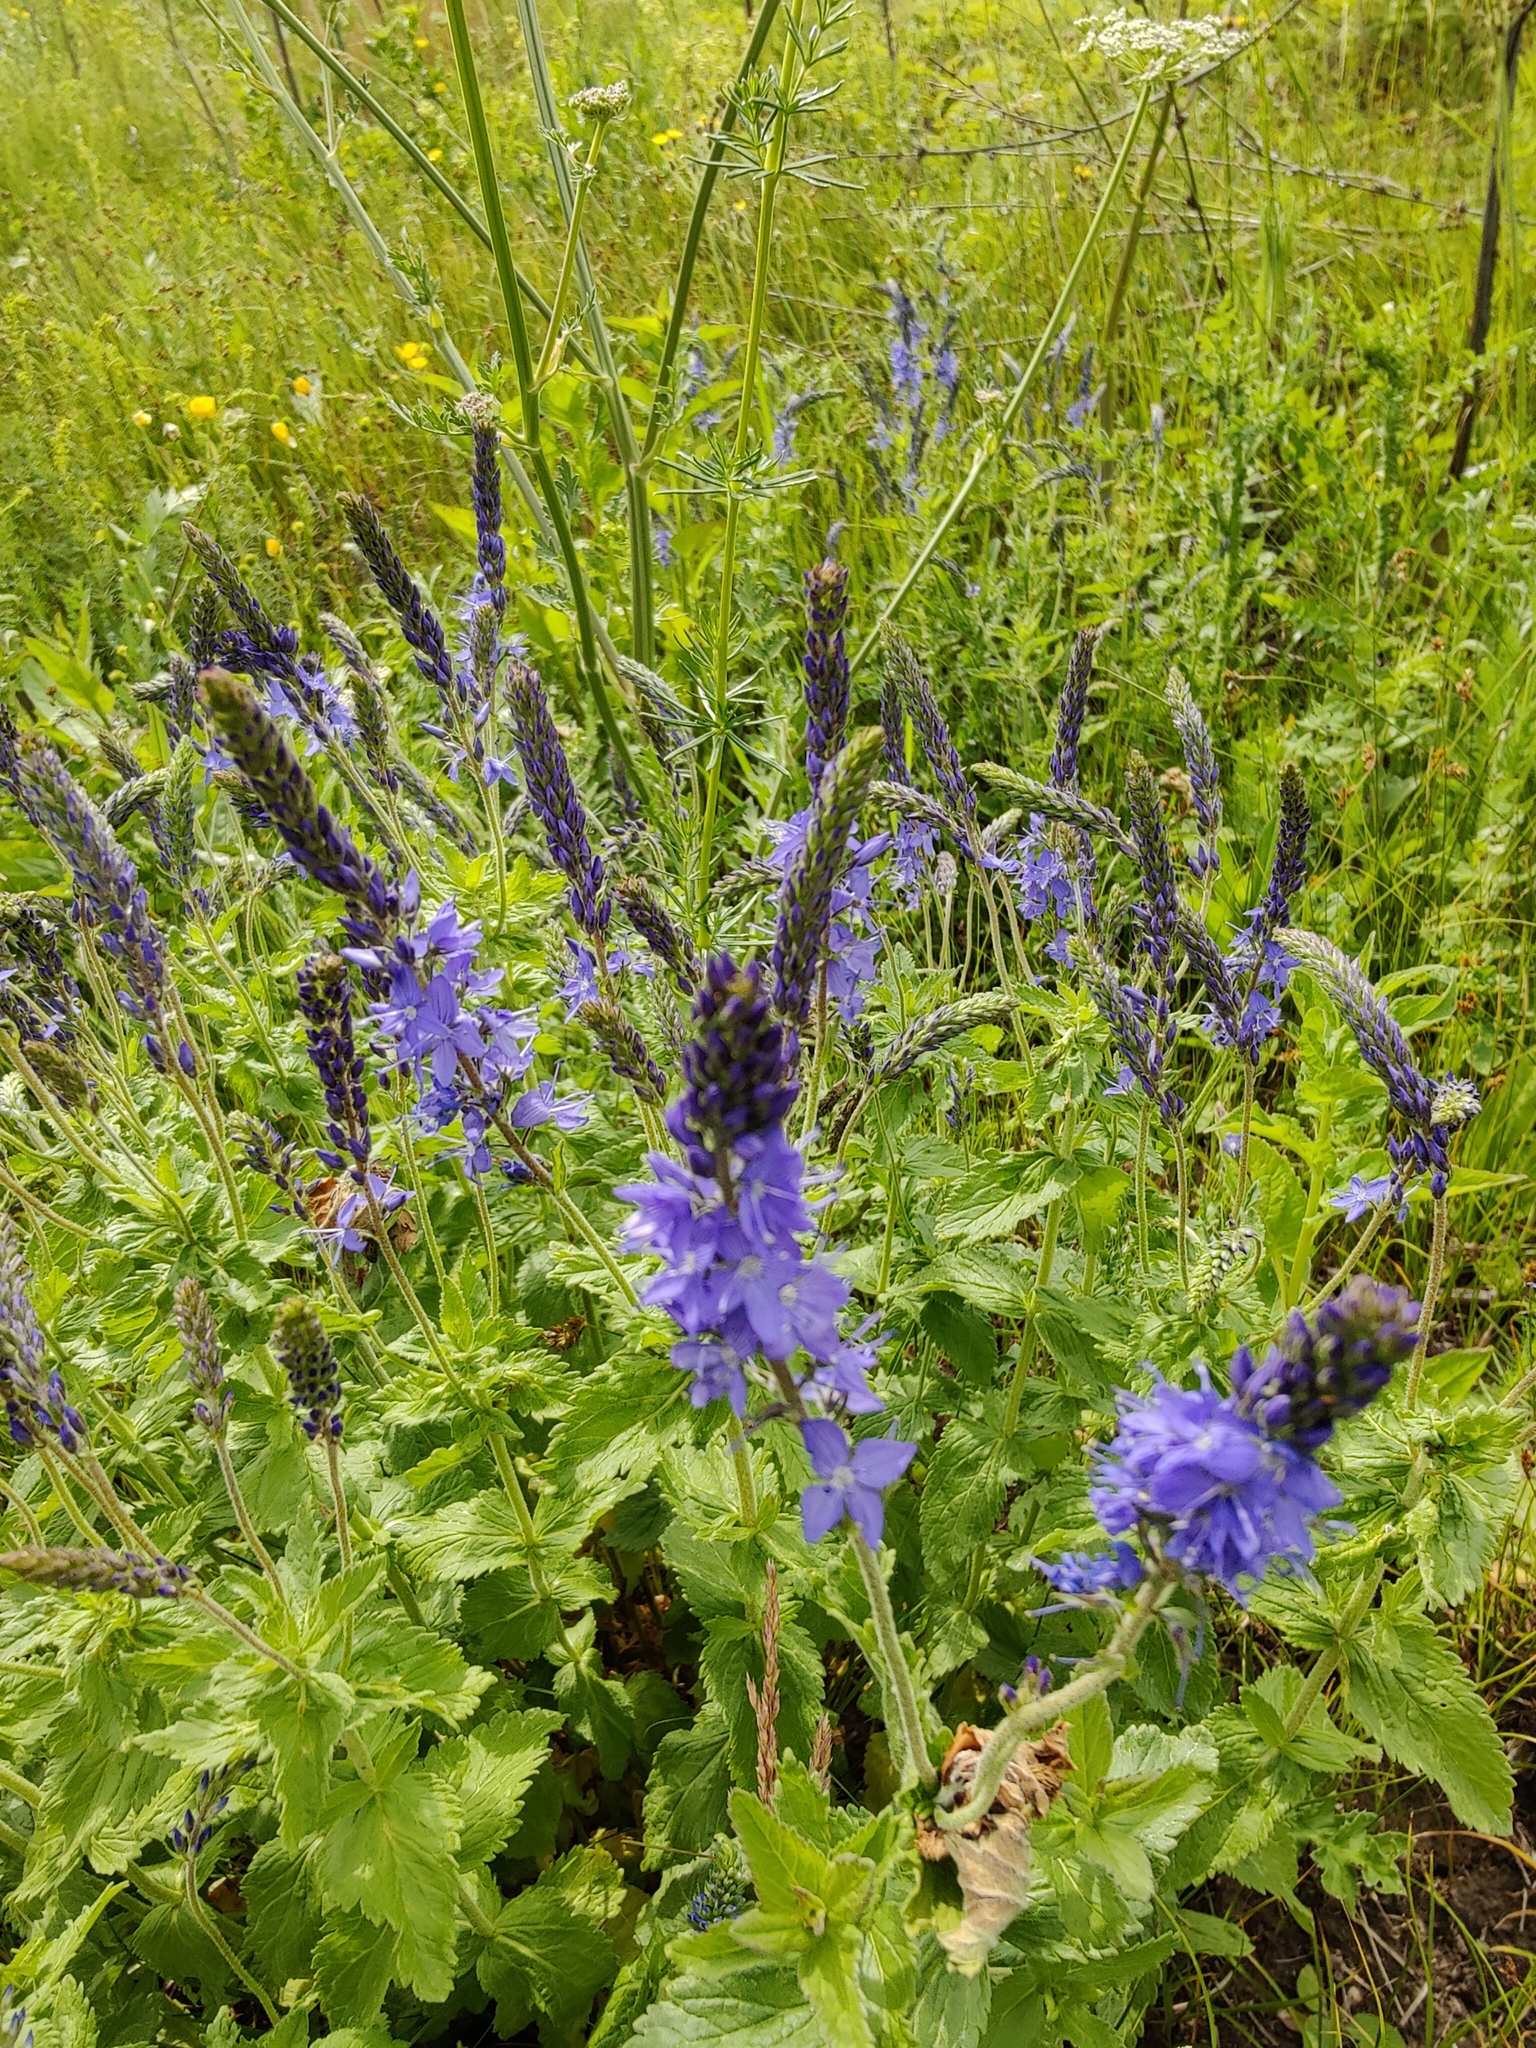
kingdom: Plantae
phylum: Tracheophyta
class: Magnoliopsida
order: Lamiales
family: Plantaginaceae
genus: Veronica
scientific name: Veronica teucrium
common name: Large speedwell
